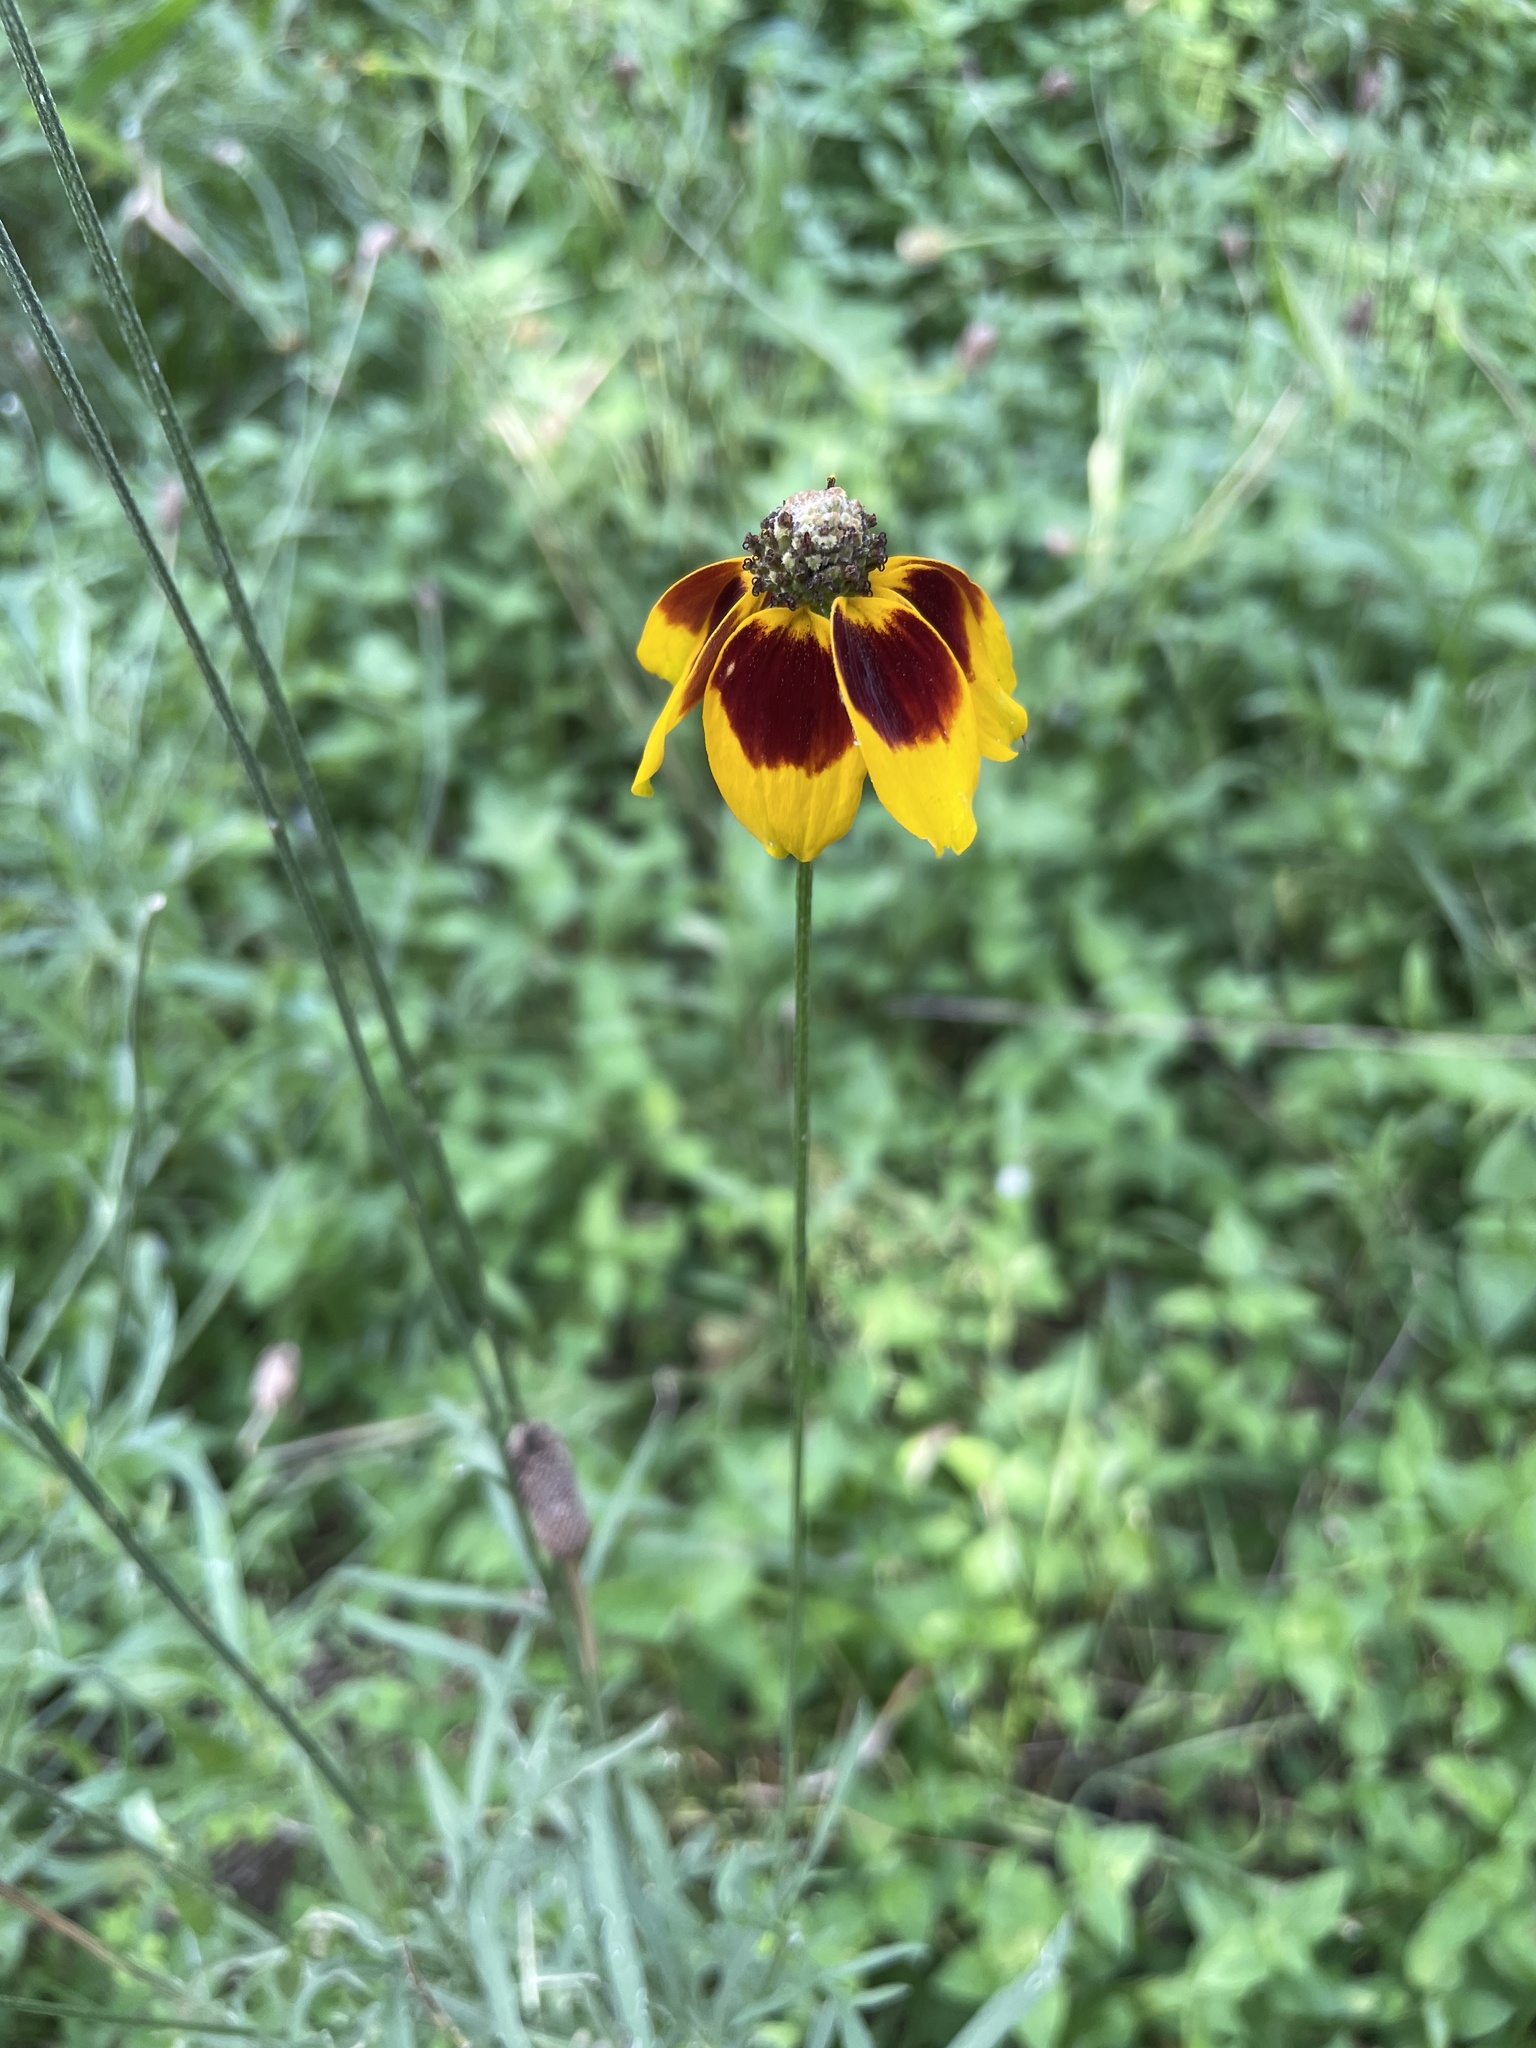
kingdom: Plantae
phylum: Tracheophyta
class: Magnoliopsida
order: Asterales
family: Asteraceae
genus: Ratibida
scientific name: Ratibida columnifera
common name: Prairie coneflower
